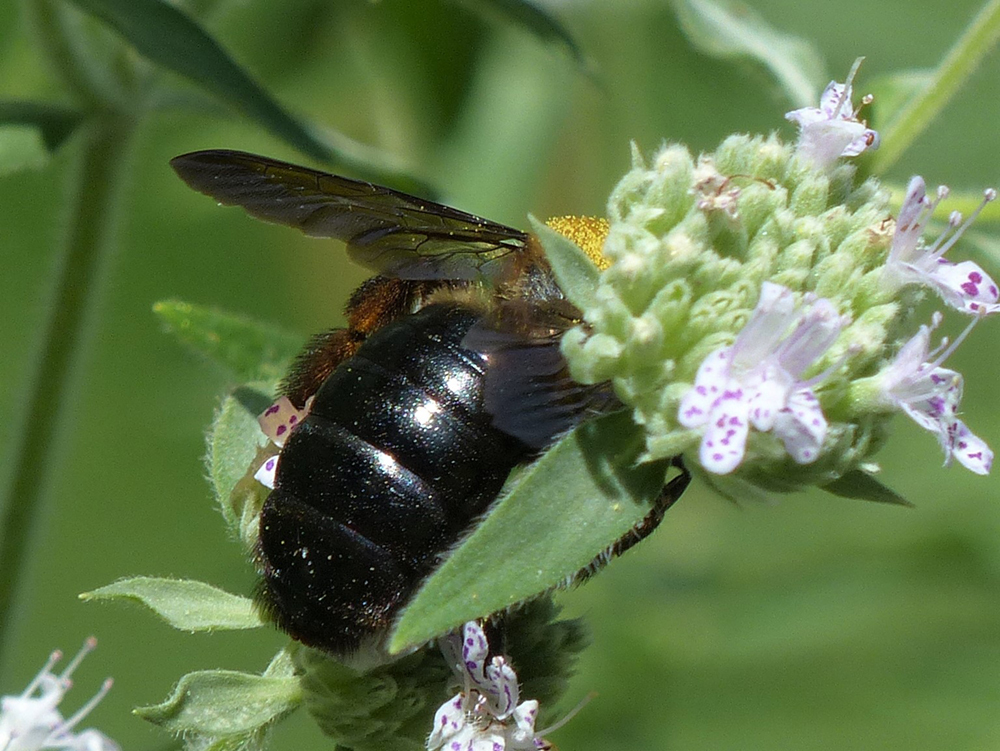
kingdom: Animalia
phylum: Arthropoda
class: Insecta
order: Hymenoptera
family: Apidae
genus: Xylocopa
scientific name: Xylocopa virginica
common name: Carpenter bee
